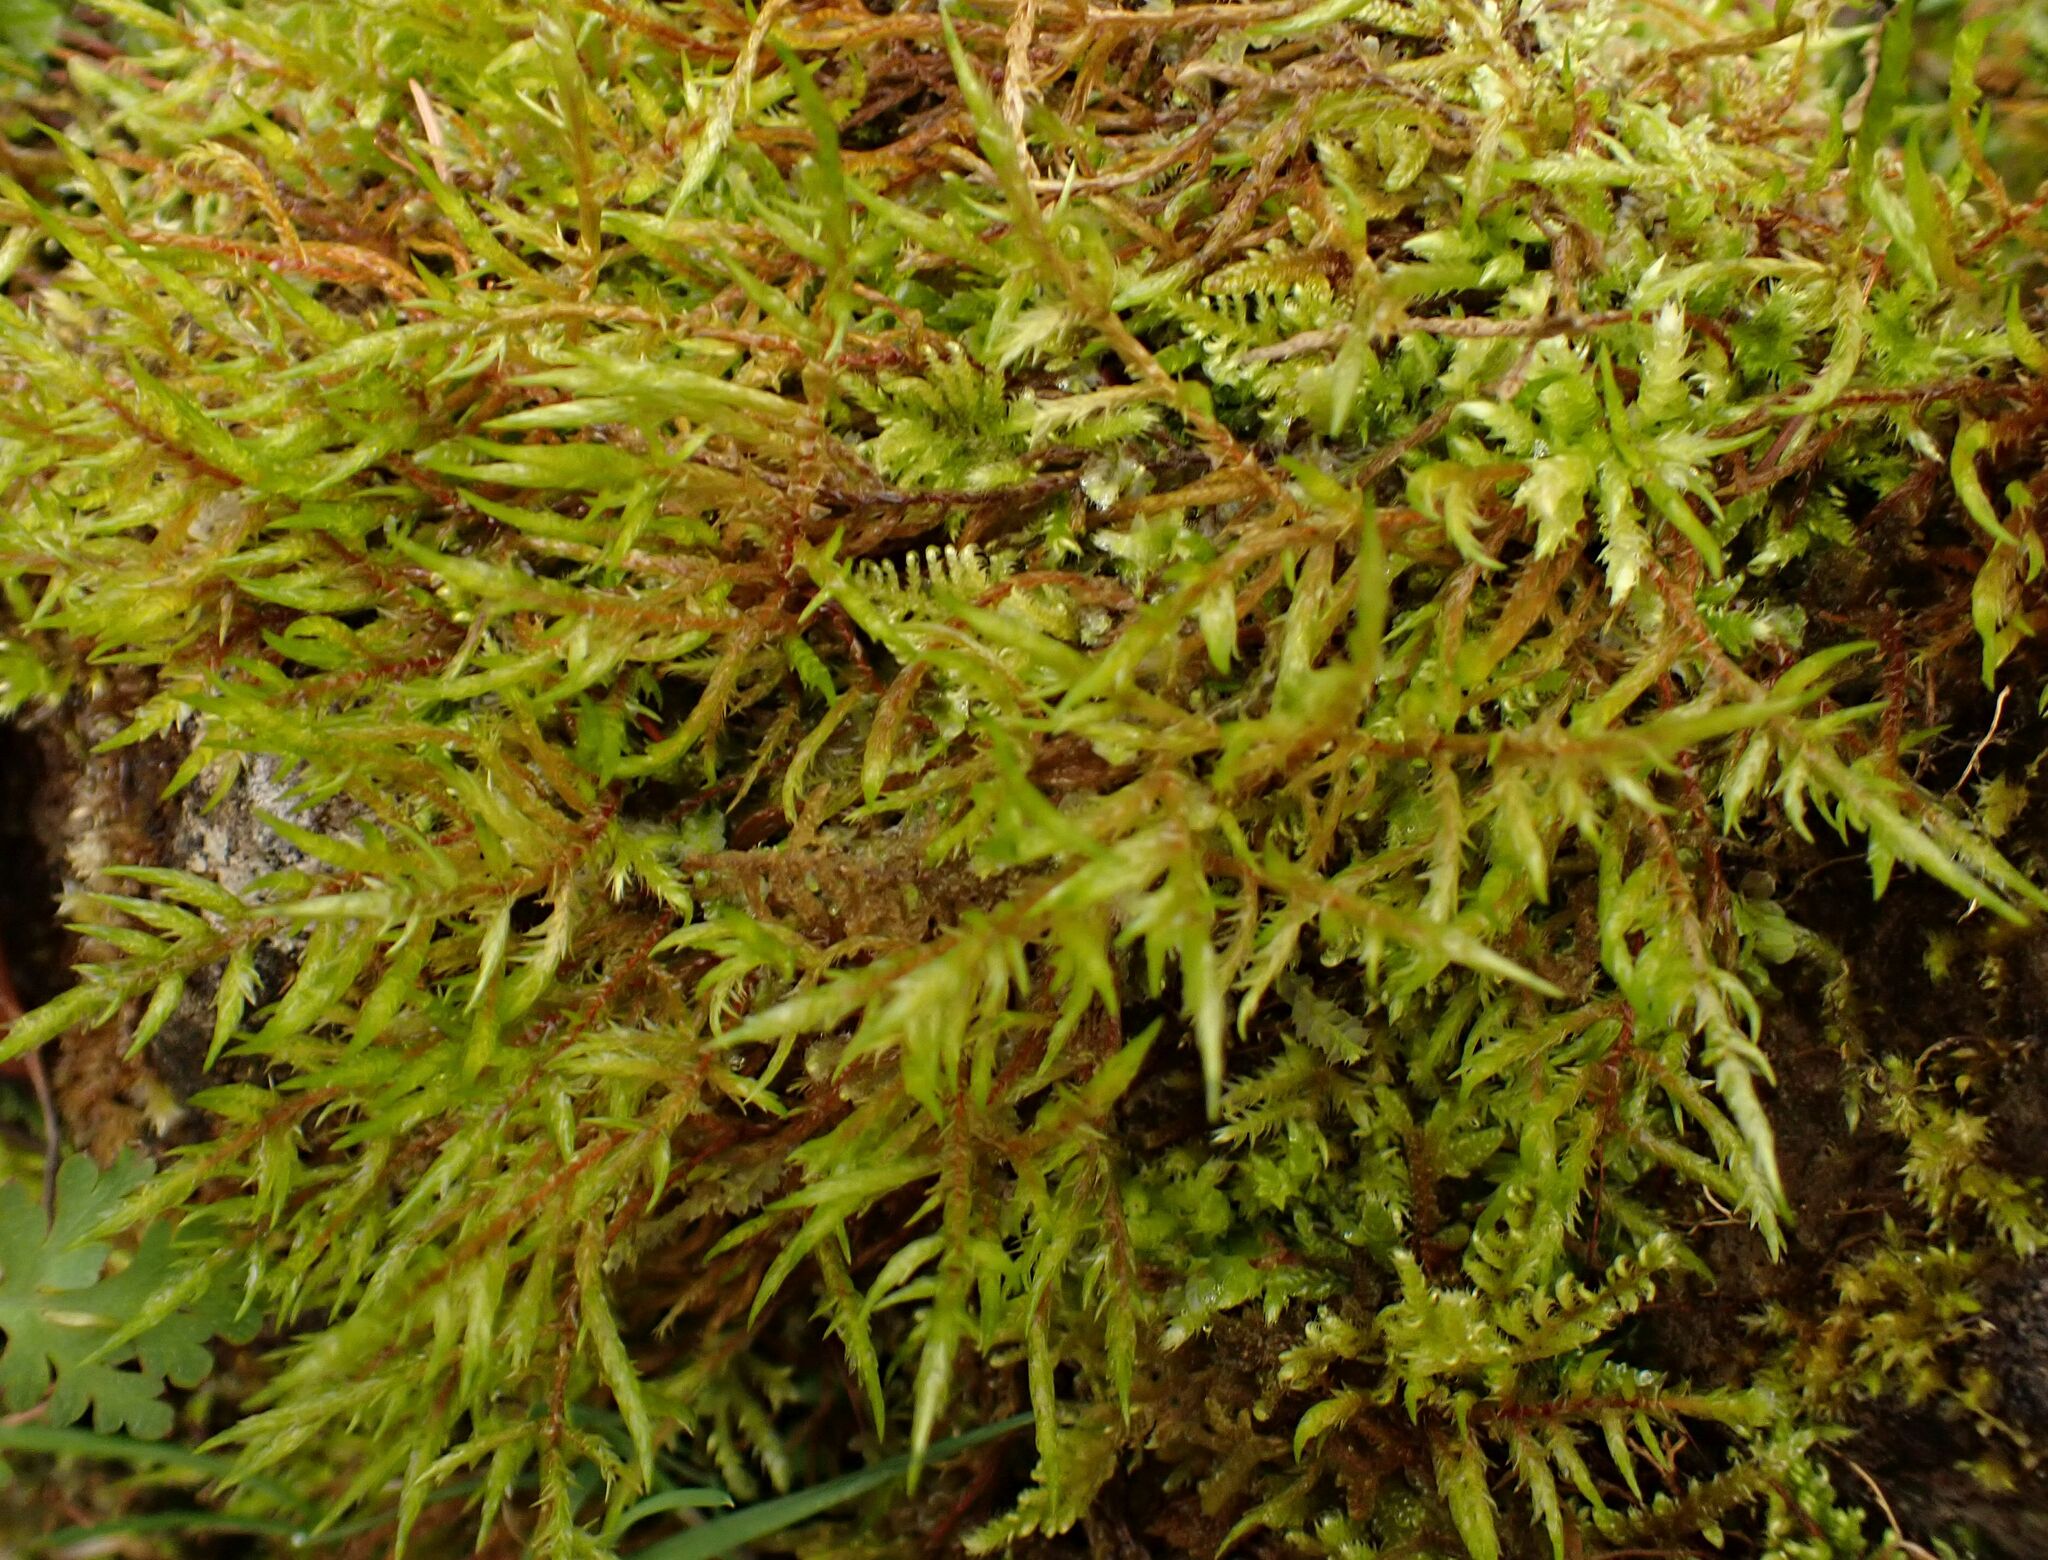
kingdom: Plantae
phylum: Bryophyta
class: Bryopsida
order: Hypnales
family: Pylaisiaceae
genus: Calliergonella
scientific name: Calliergonella cuspidata
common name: Common large wetland moss
